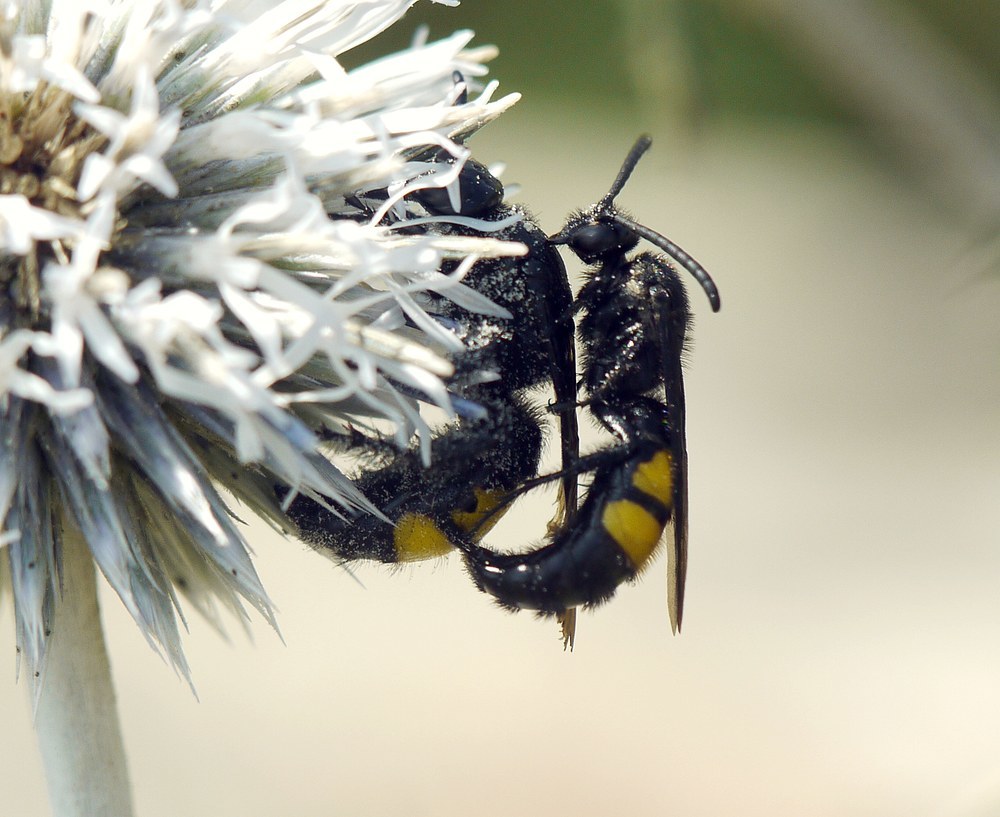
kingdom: Animalia
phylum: Arthropoda
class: Insecta
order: Hymenoptera
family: Scoliidae
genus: Scolia
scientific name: Scolia hirta
